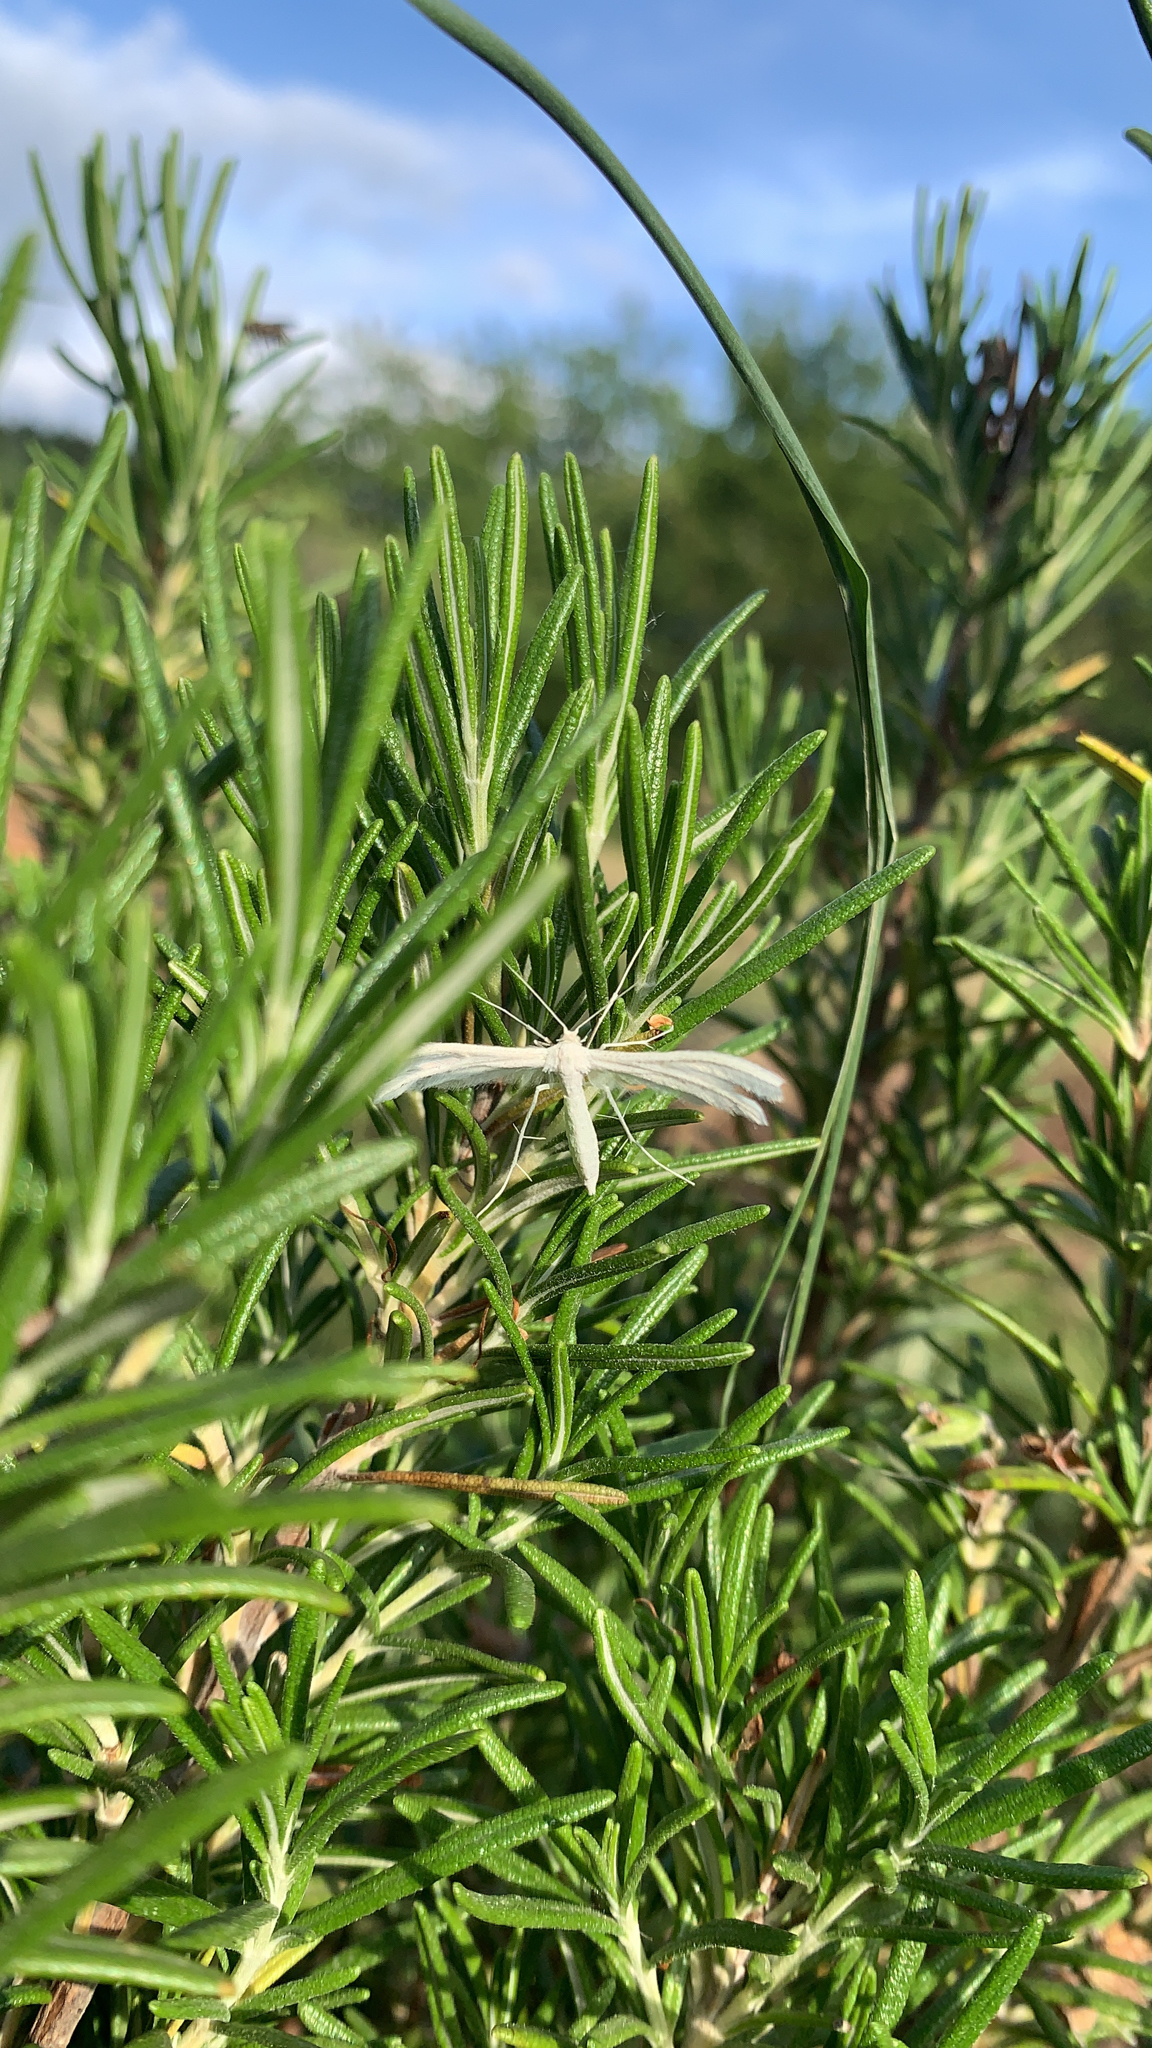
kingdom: Animalia
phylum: Arthropoda
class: Insecta
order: Lepidoptera
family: Pterophoridae
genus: Pterophorus
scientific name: Pterophorus pentadactyla
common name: White plume moth
